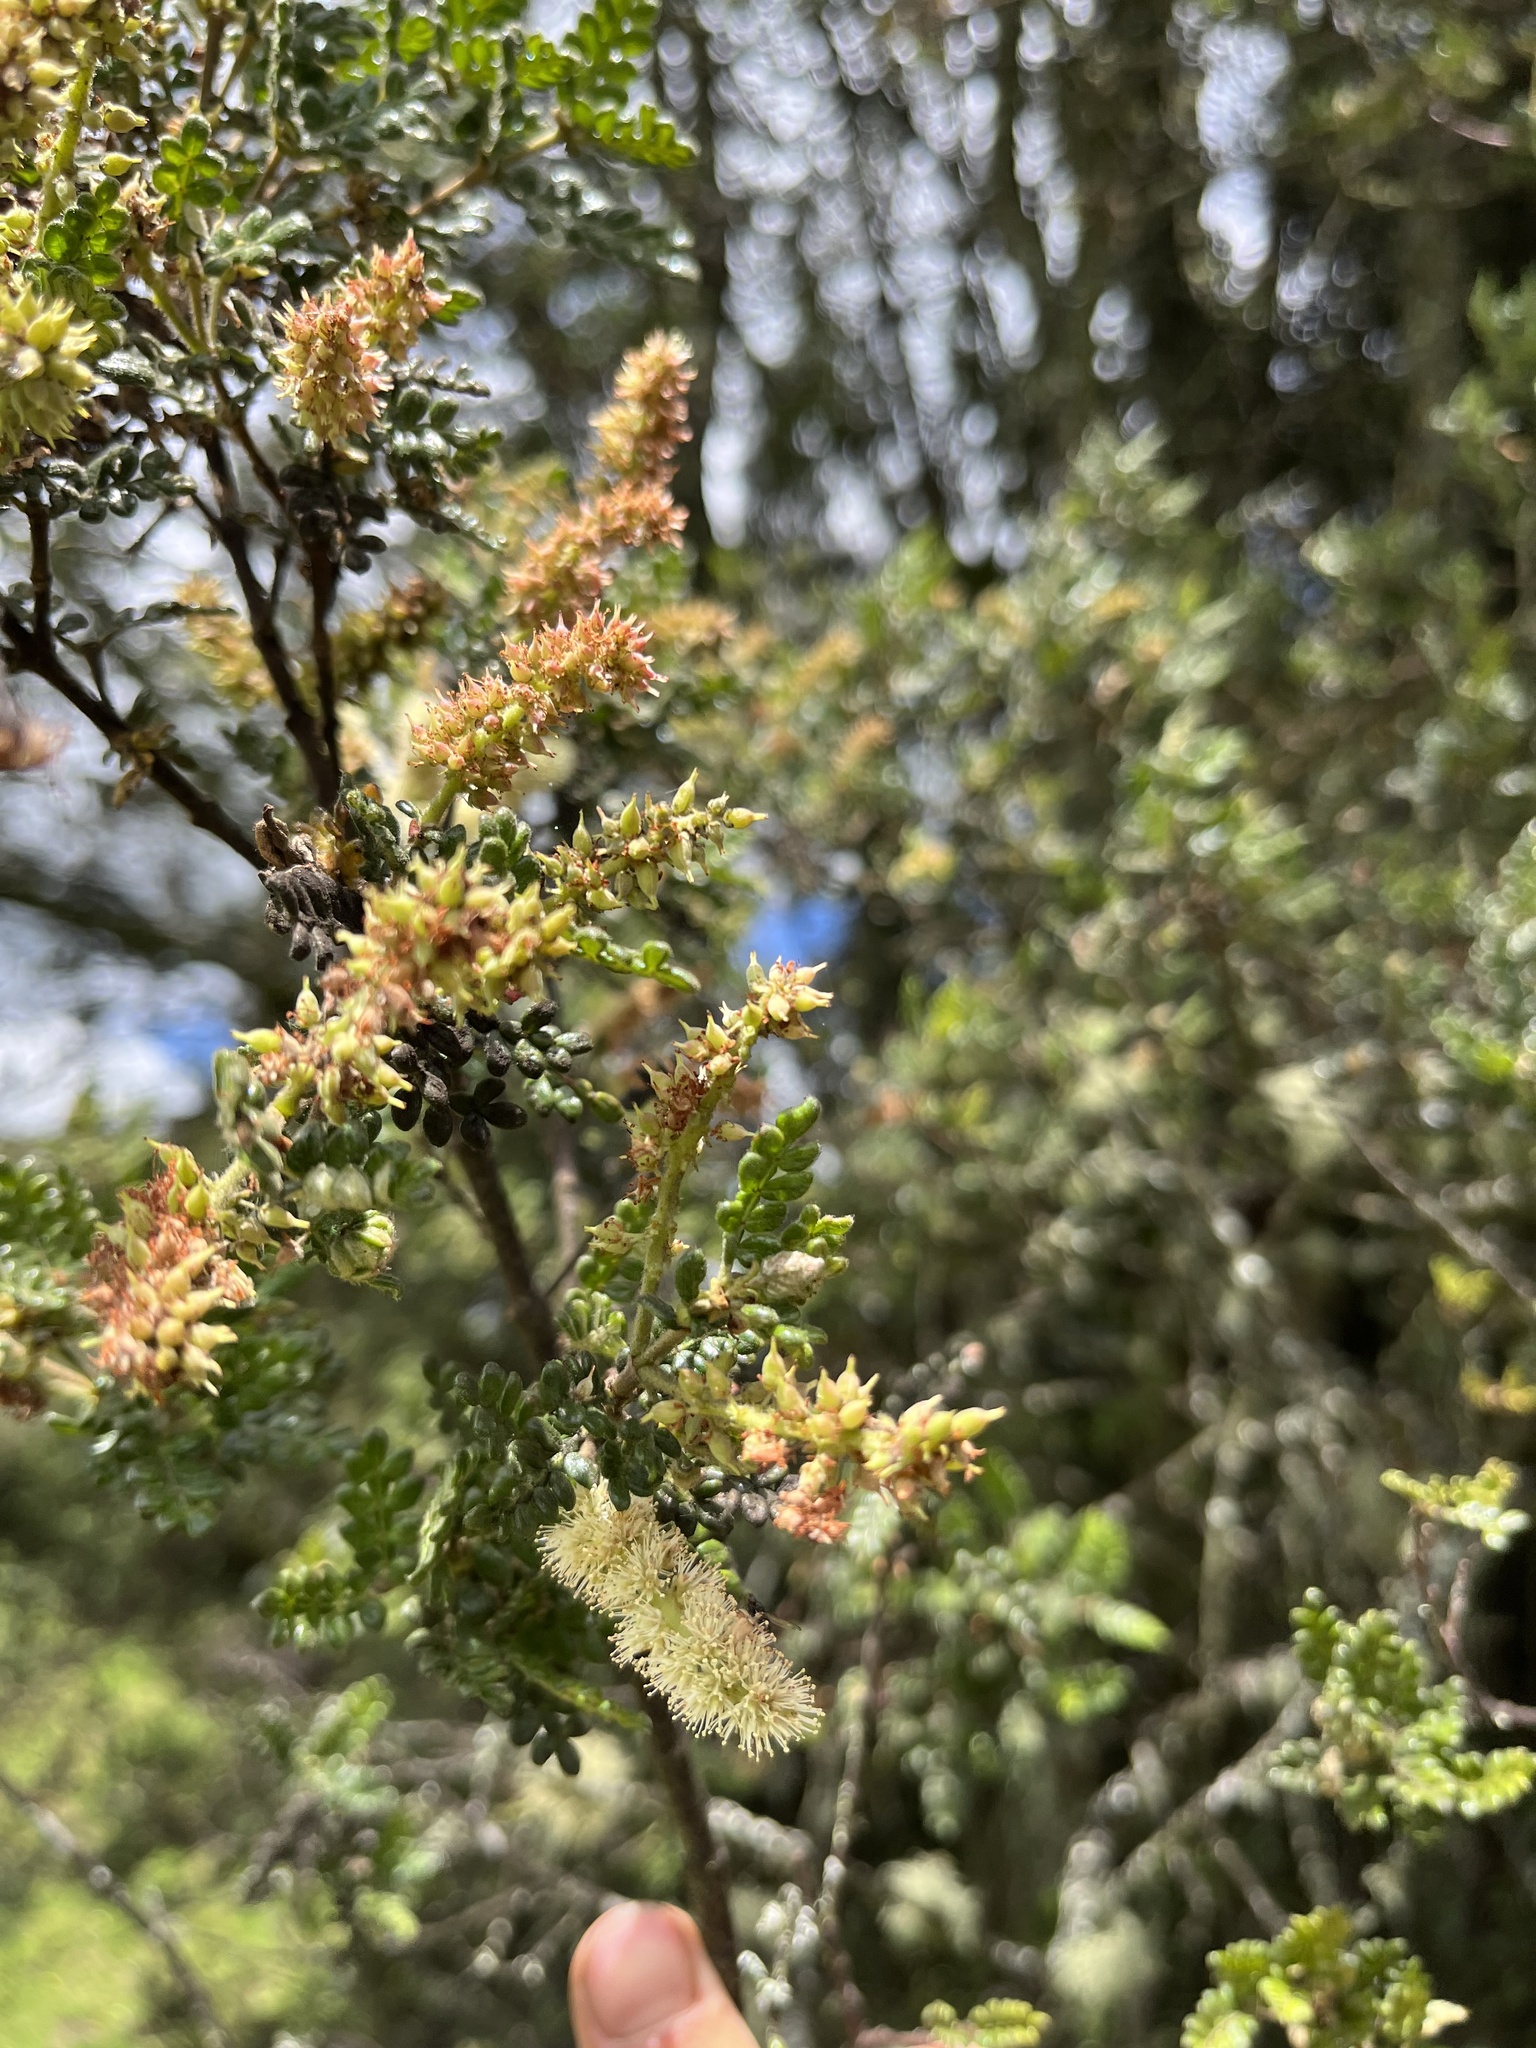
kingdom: Plantae
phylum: Tracheophyta
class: Magnoliopsida
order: Oxalidales
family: Cunoniaceae
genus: Weinmannia
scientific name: Weinmannia tomentosa
